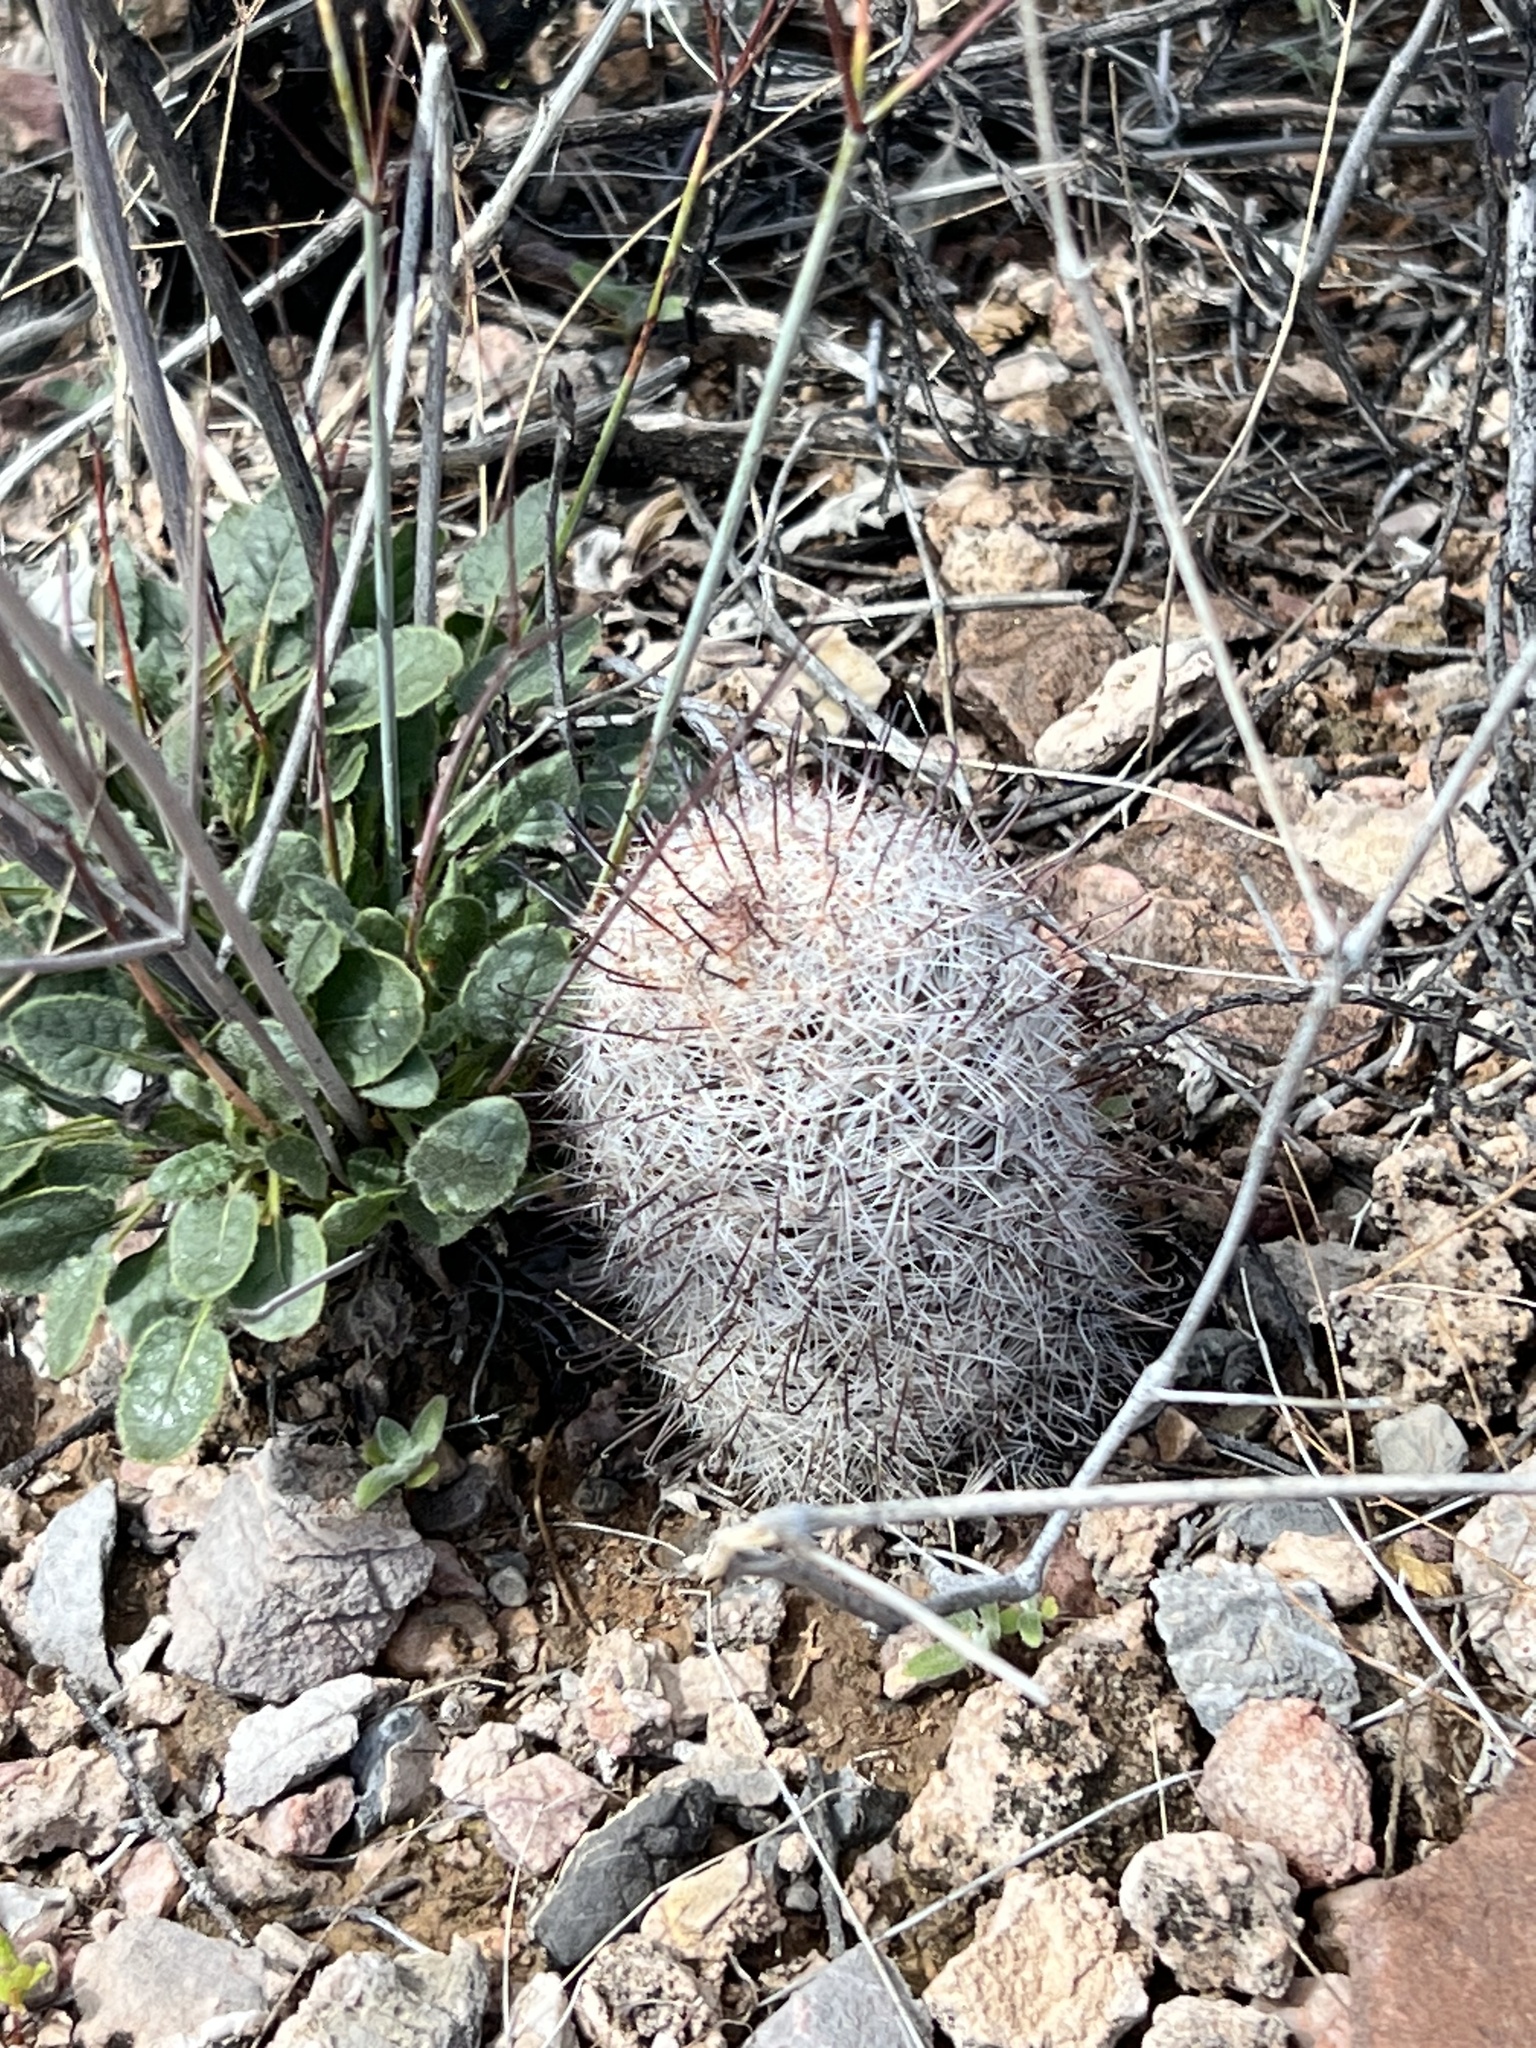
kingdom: Plantae
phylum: Tracheophyta
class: Magnoliopsida
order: Caryophyllales
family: Cactaceae
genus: Cochemiea
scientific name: Cochemiea grahamii
